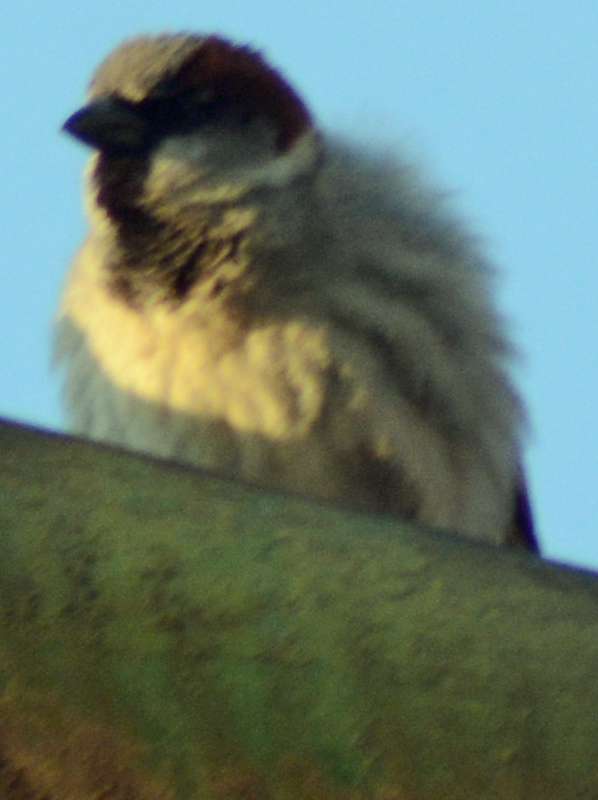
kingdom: Animalia
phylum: Chordata
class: Aves
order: Passeriformes
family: Passeridae
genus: Passer
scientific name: Passer domesticus
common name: House sparrow
